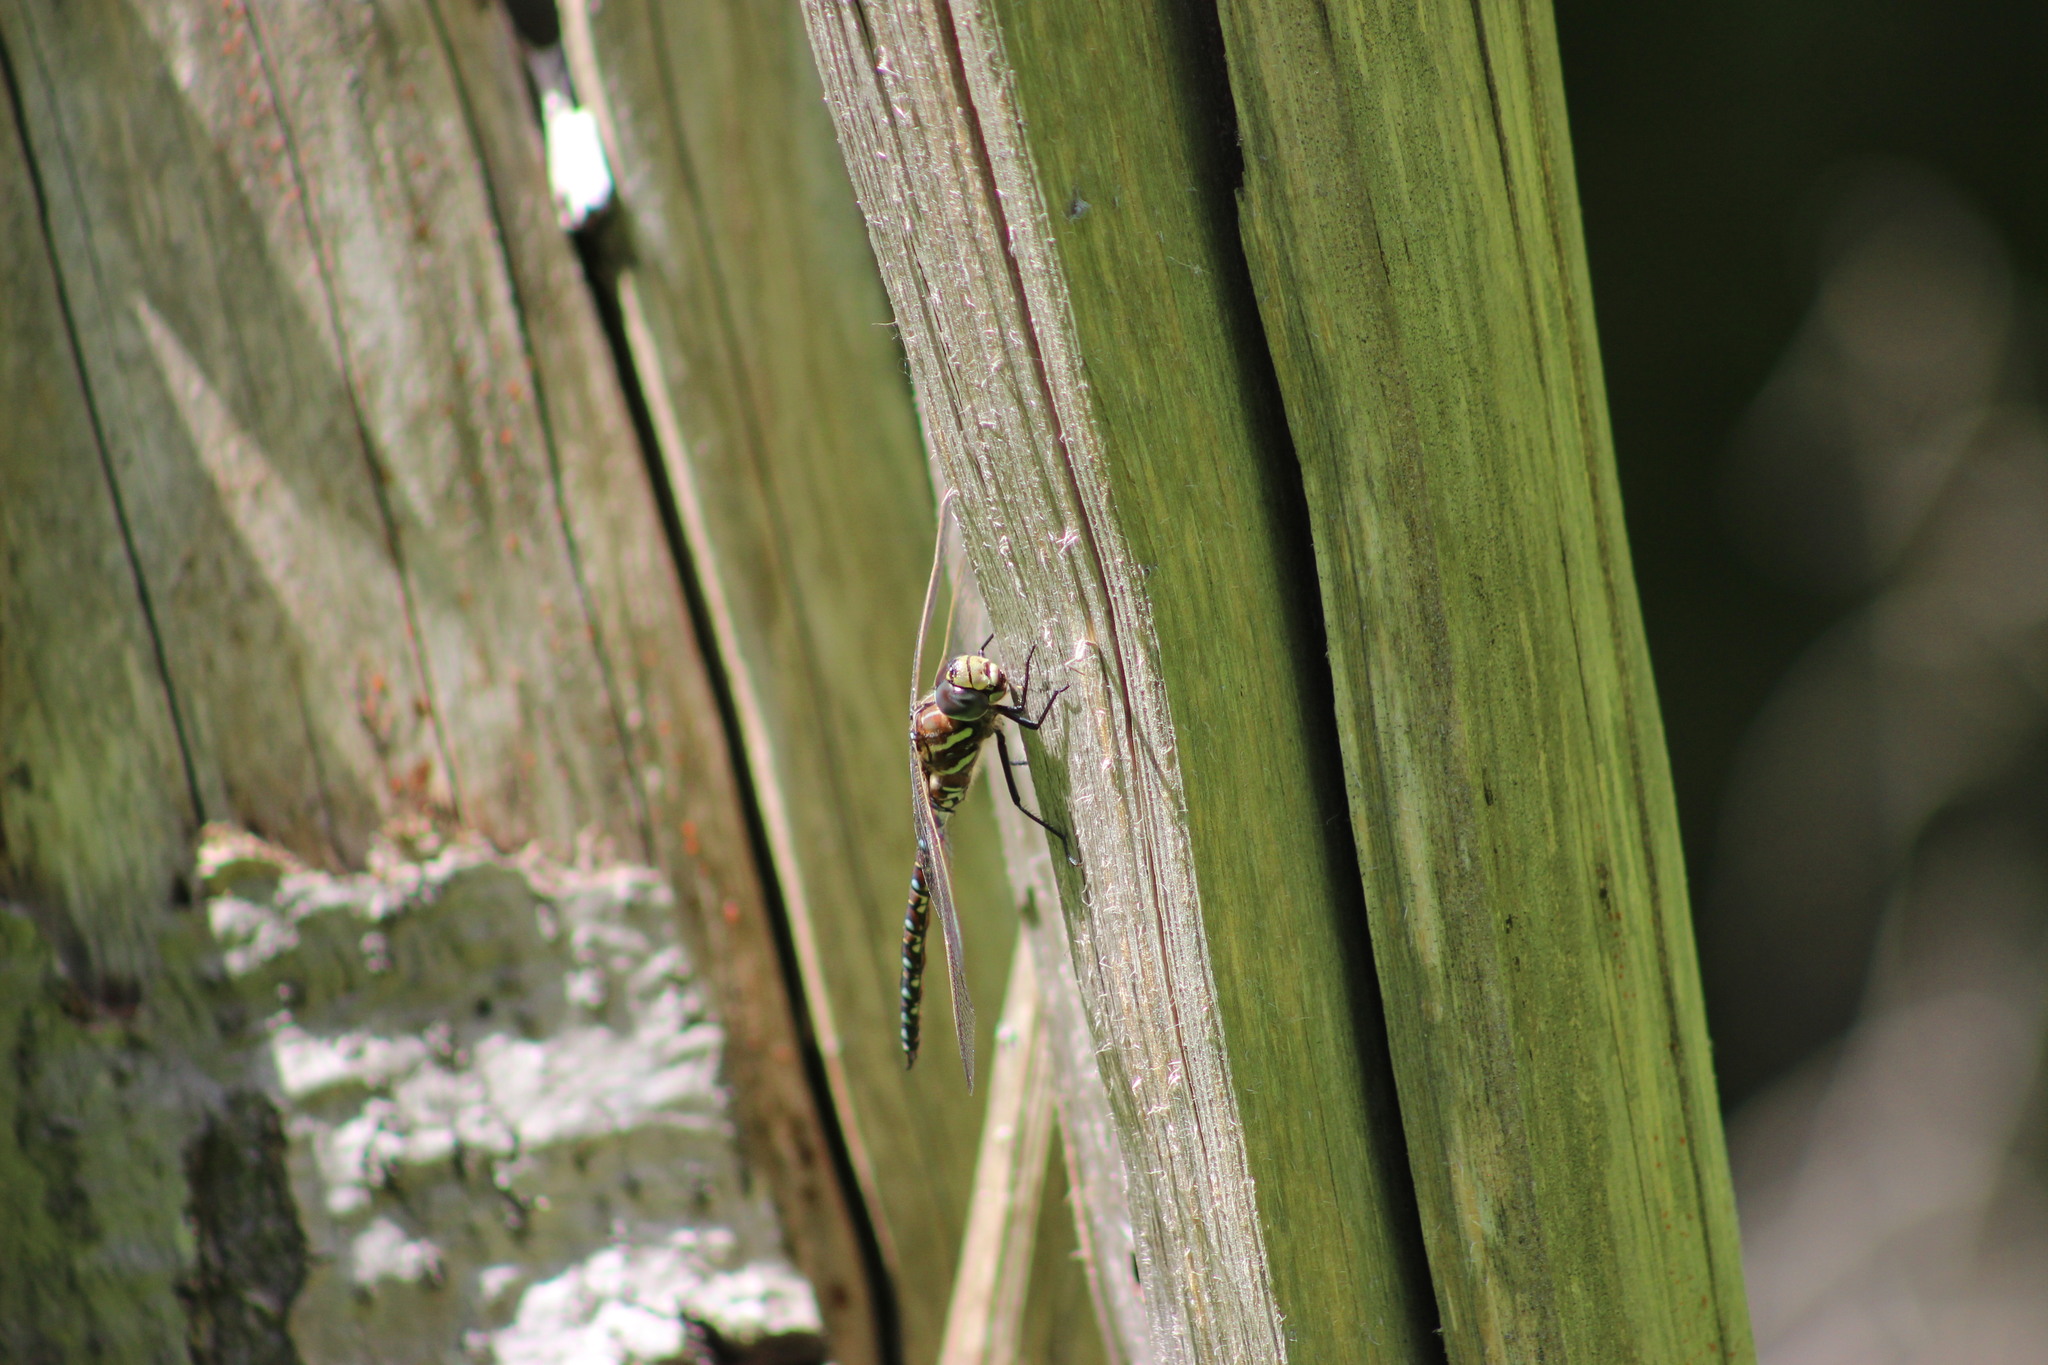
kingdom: Animalia
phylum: Arthropoda
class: Insecta
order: Odonata
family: Aeshnidae
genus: Aeshna
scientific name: Aeshna juncea
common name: Moorland hawker
